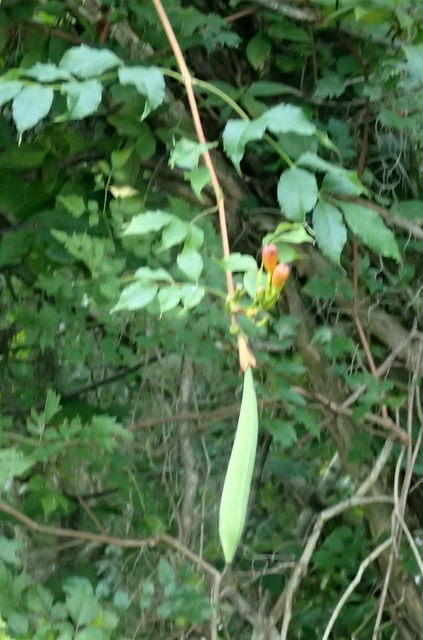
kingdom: Plantae
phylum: Tracheophyta
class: Magnoliopsida
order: Lamiales
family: Bignoniaceae
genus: Campsis
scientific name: Campsis radicans
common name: Trumpet-creeper
